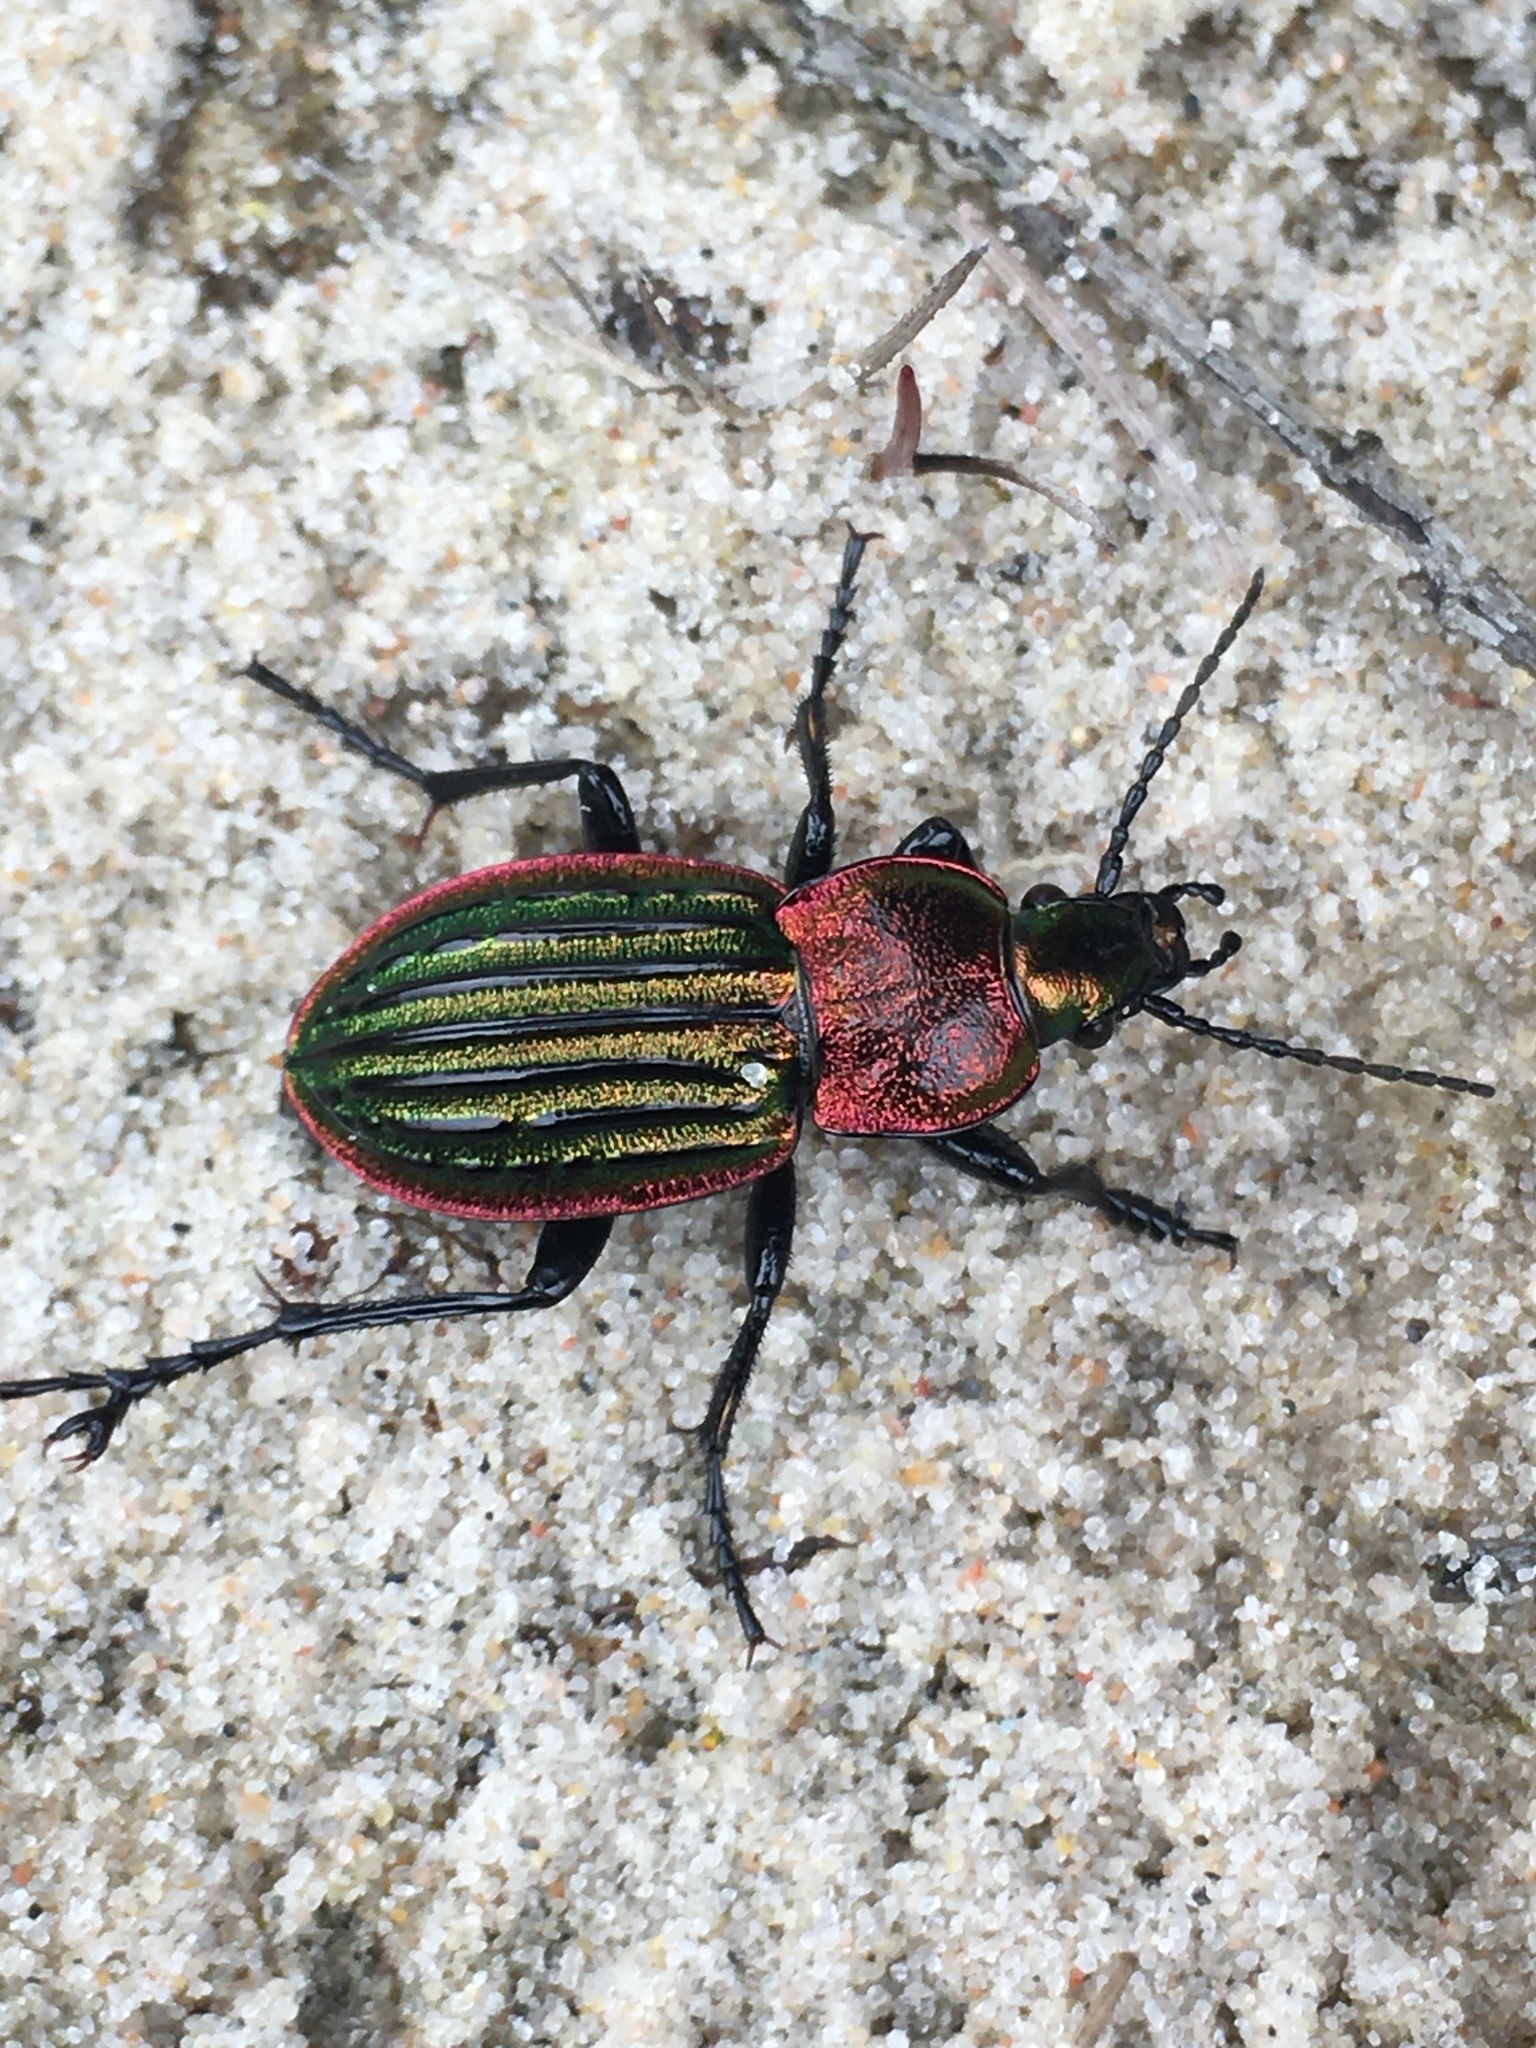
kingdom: Animalia
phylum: Arthropoda
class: Insecta
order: Coleoptera
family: Carabidae
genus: Carabus
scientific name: Carabus nitens
